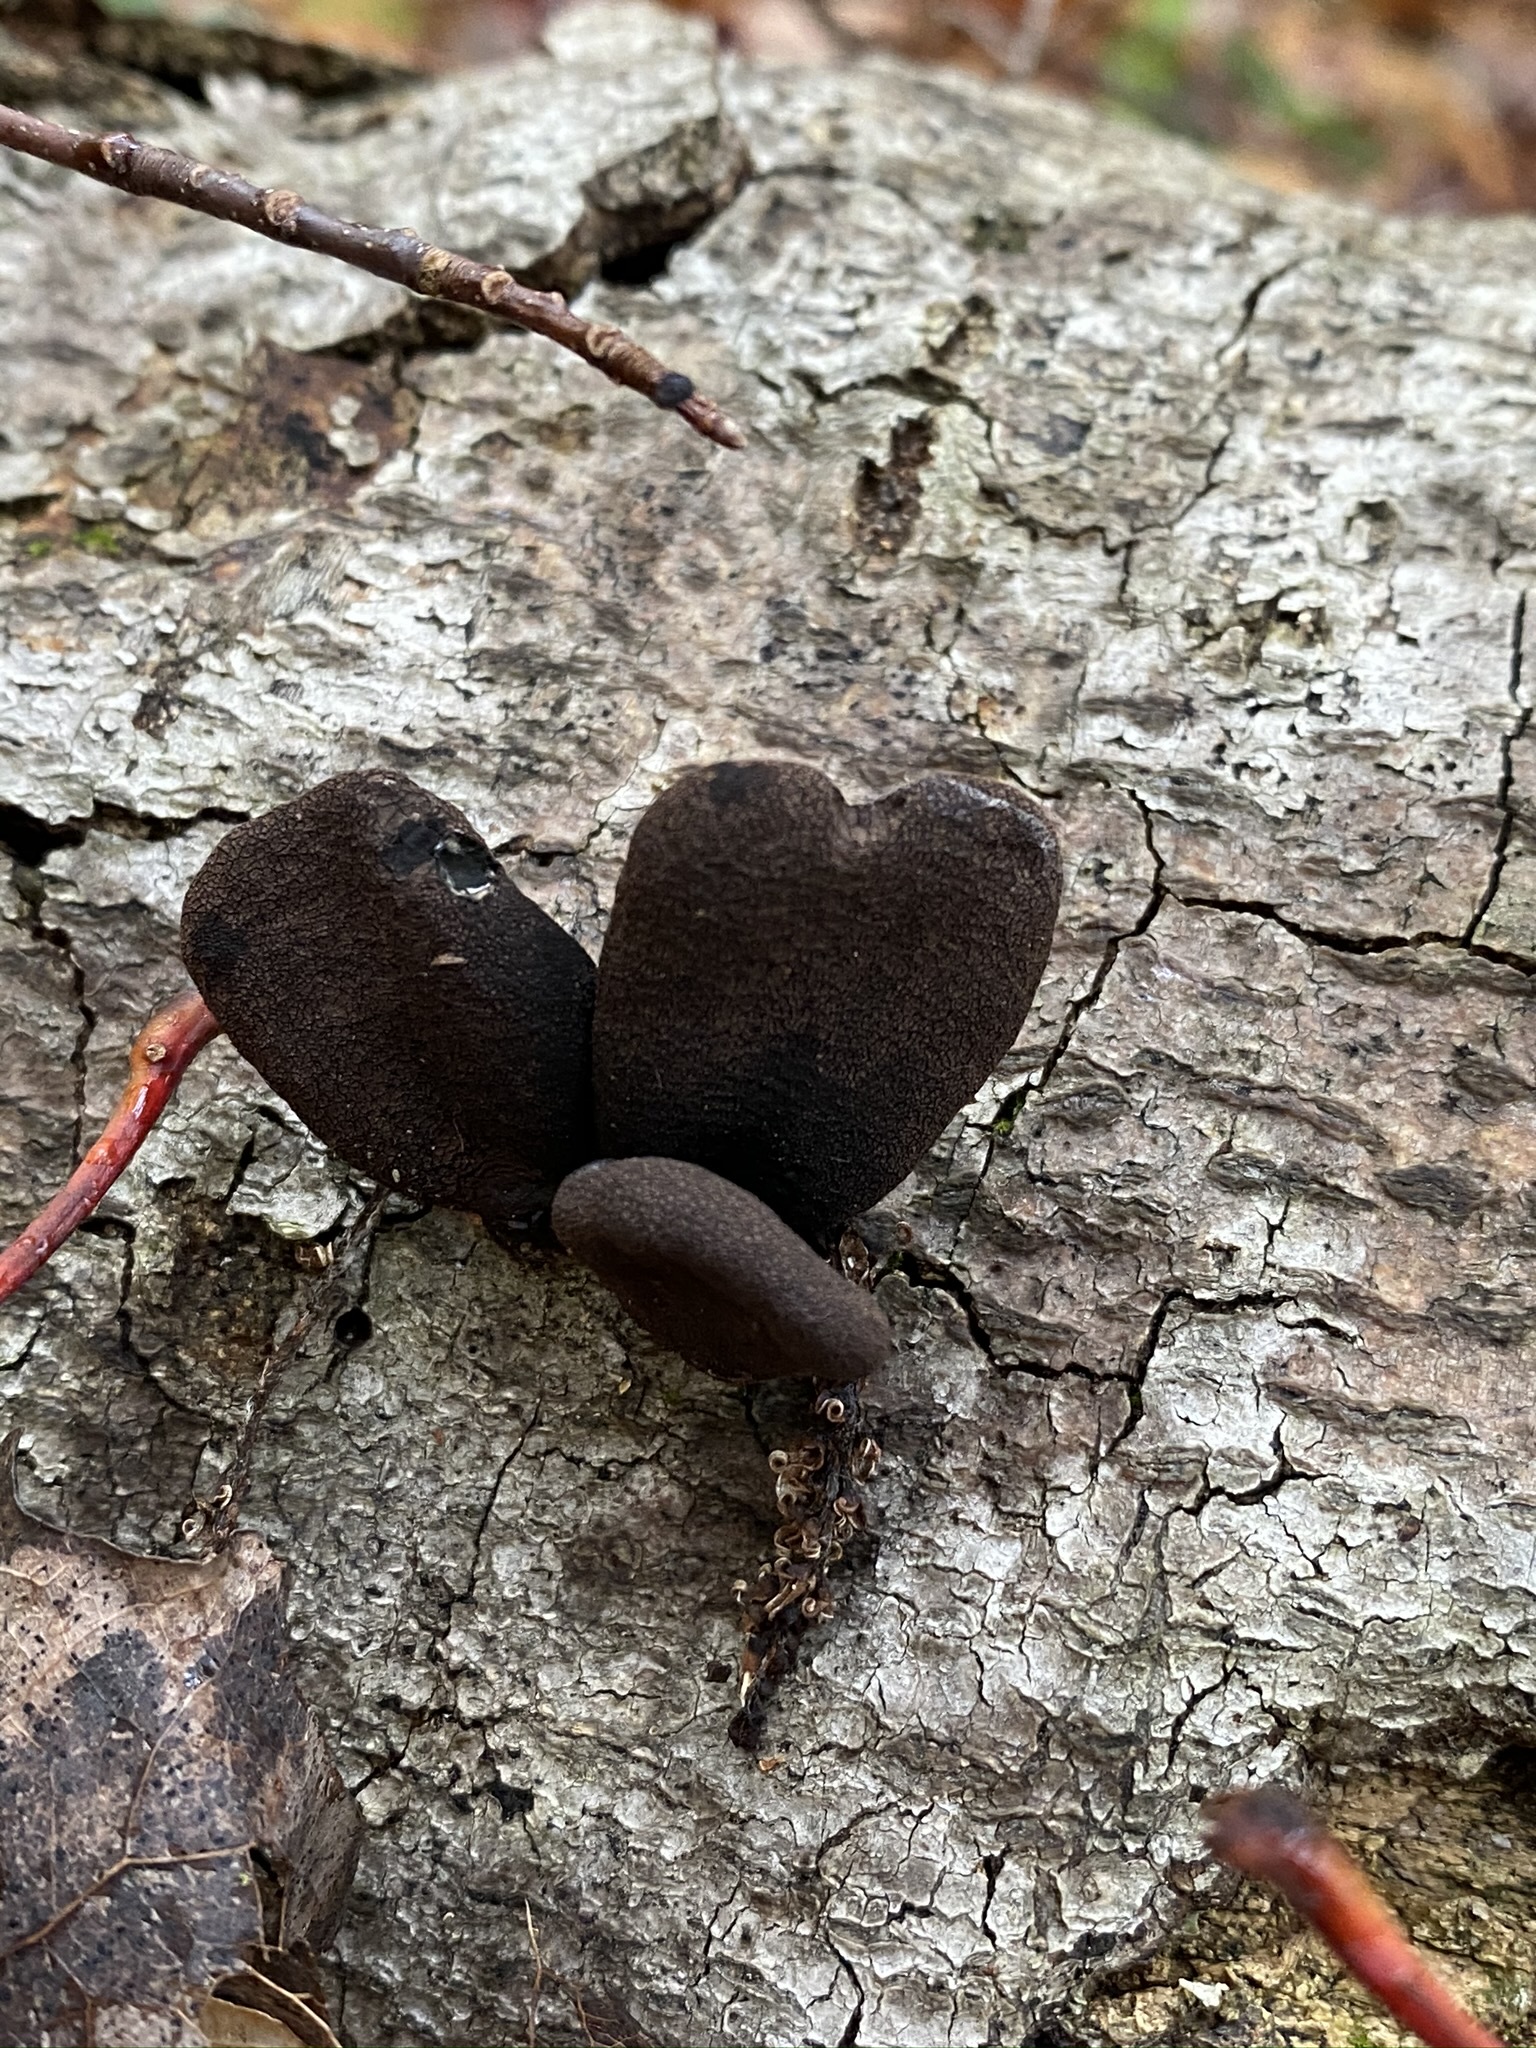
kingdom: Fungi
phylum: Ascomycota
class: Sordariomycetes
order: Xylariales
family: Xylariaceae
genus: Xylaria
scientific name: Xylaria polymorpha
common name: Dead man's fingers
